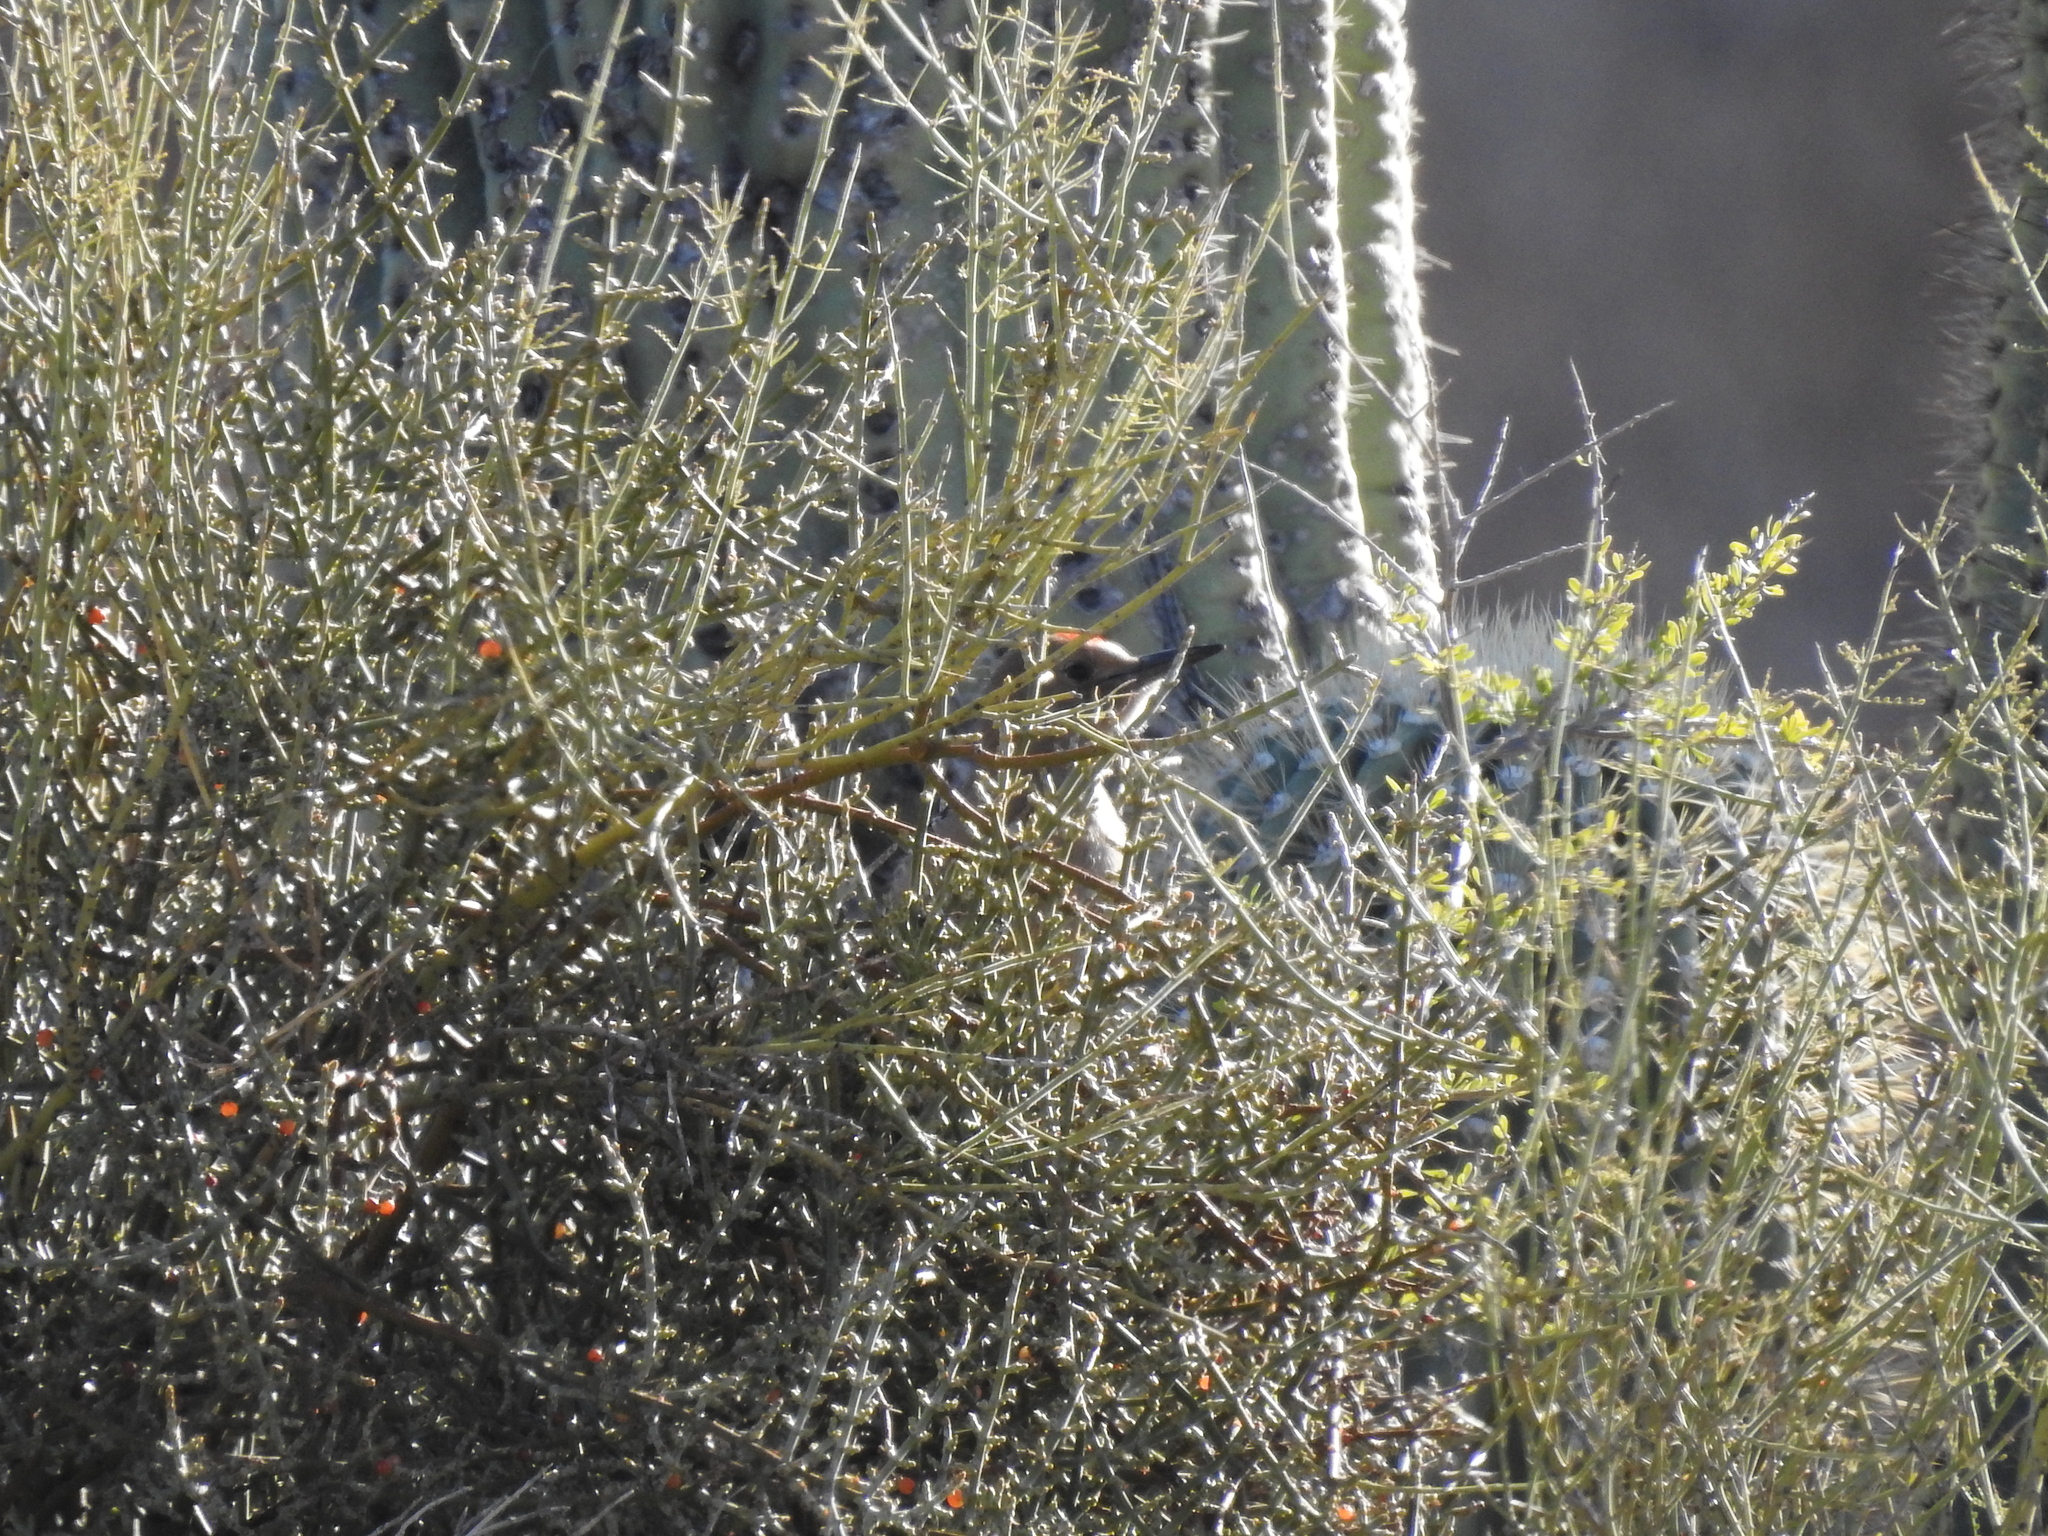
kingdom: Animalia
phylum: Chordata
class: Aves
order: Piciformes
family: Picidae
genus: Melanerpes
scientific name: Melanerpes uropygialis
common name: Gila woodpecker
